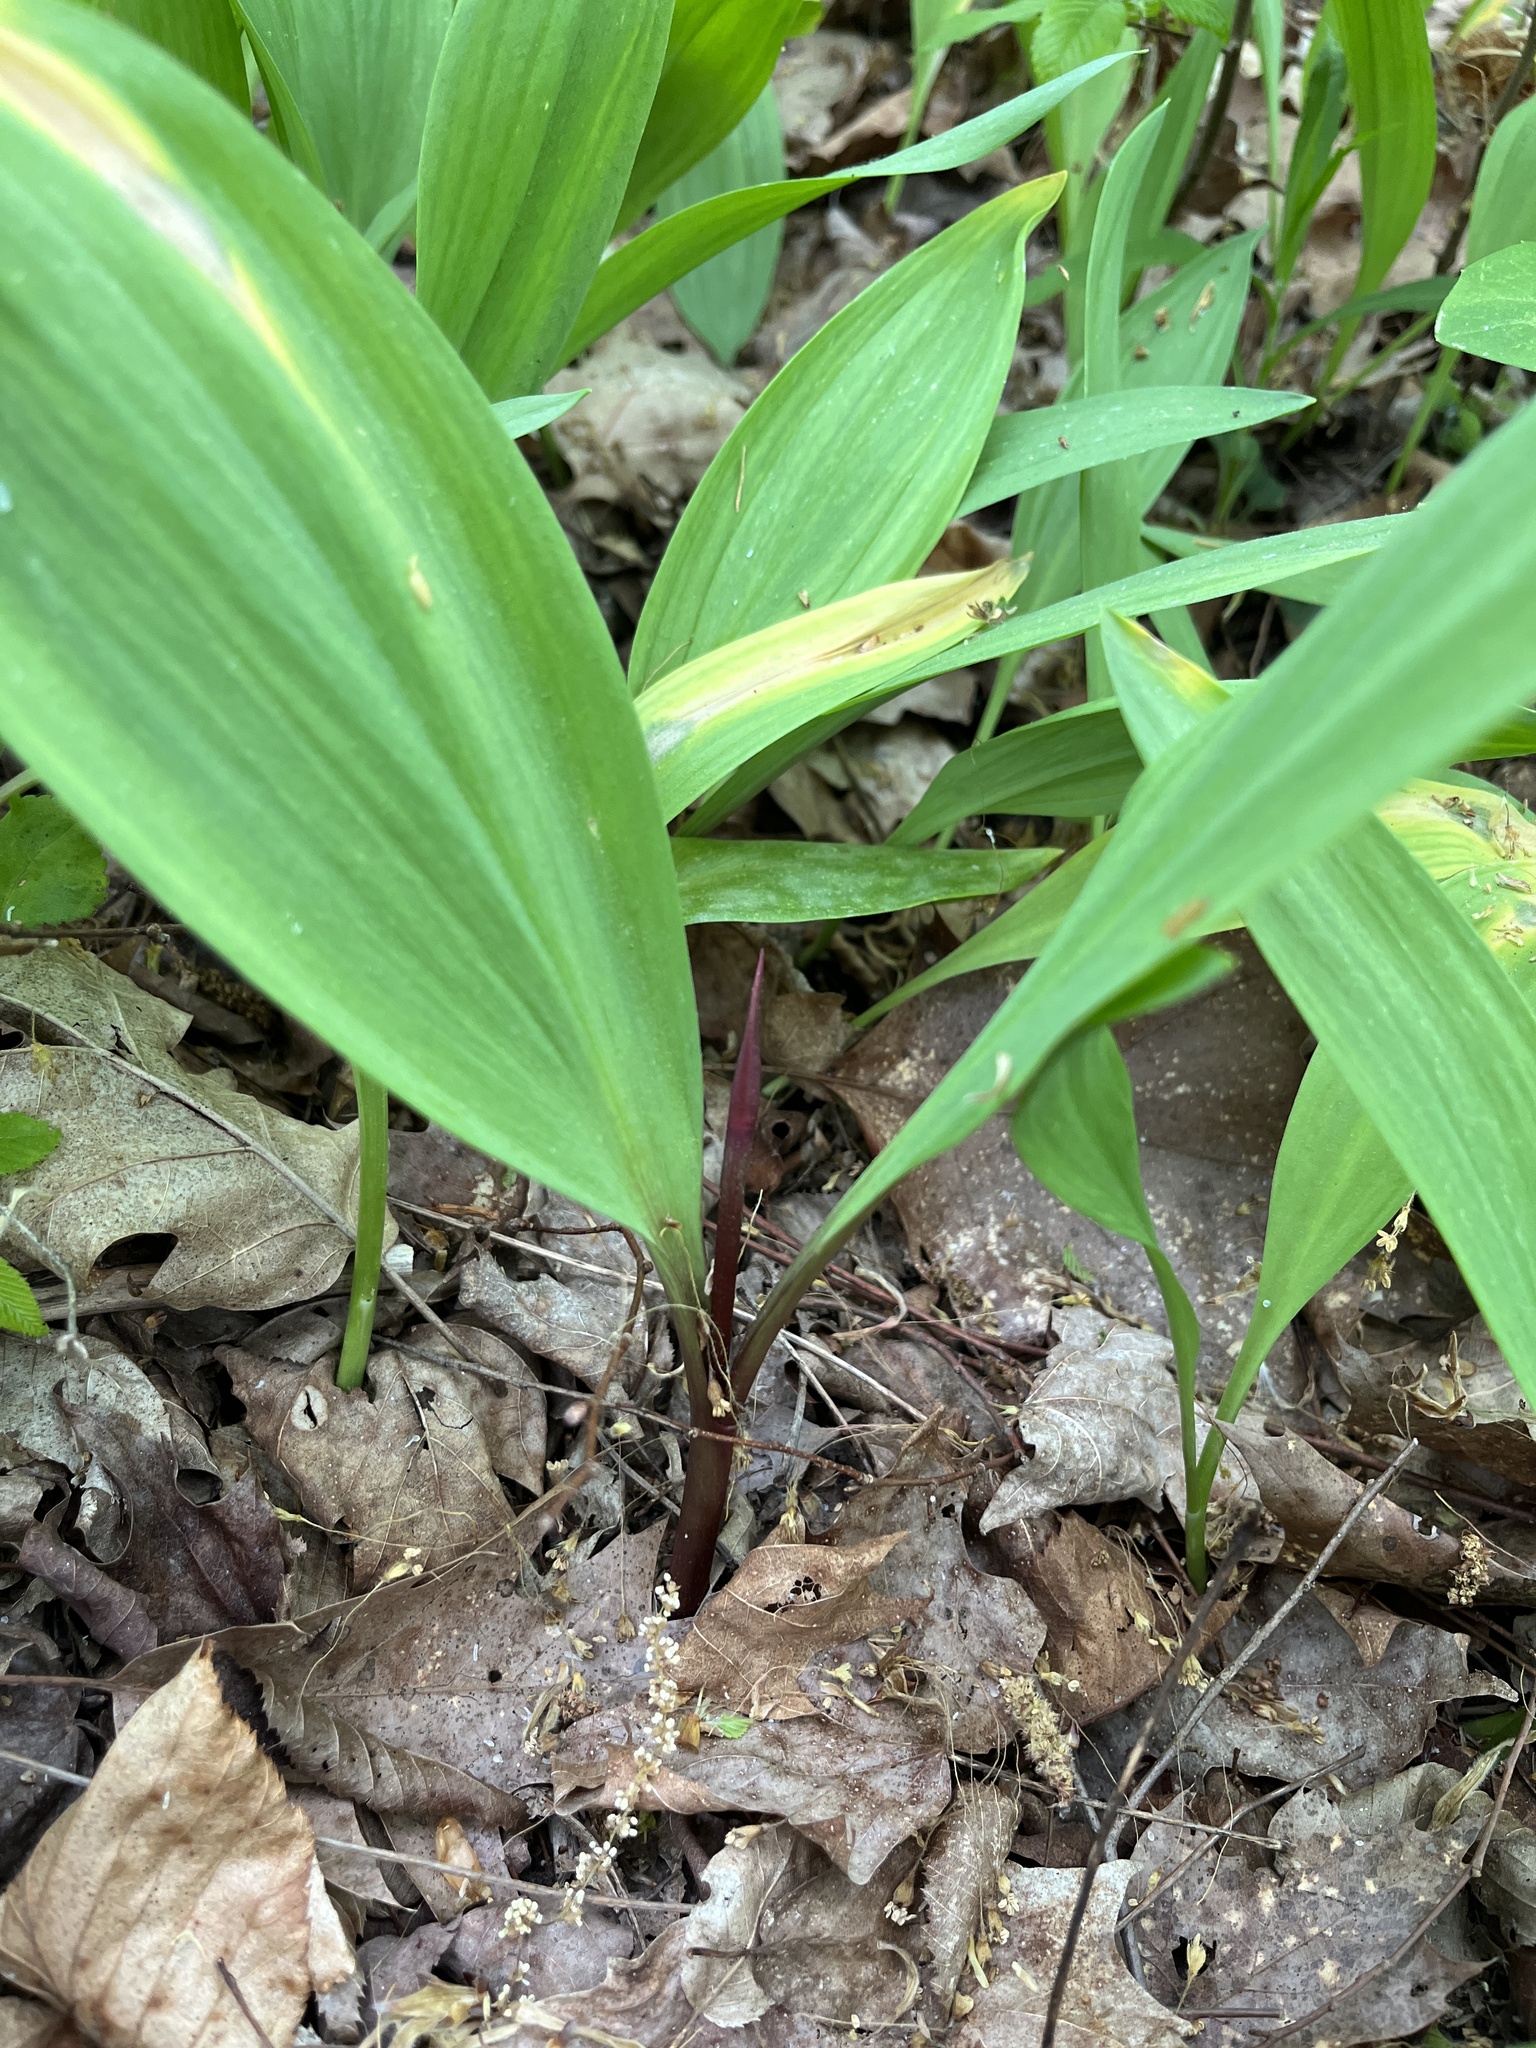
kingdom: Plantae
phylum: Tracheophyta
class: Liliopsida
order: Asparagales
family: Amaryllidaceae
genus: Allium
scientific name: Allium tricoccum
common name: Ramp
